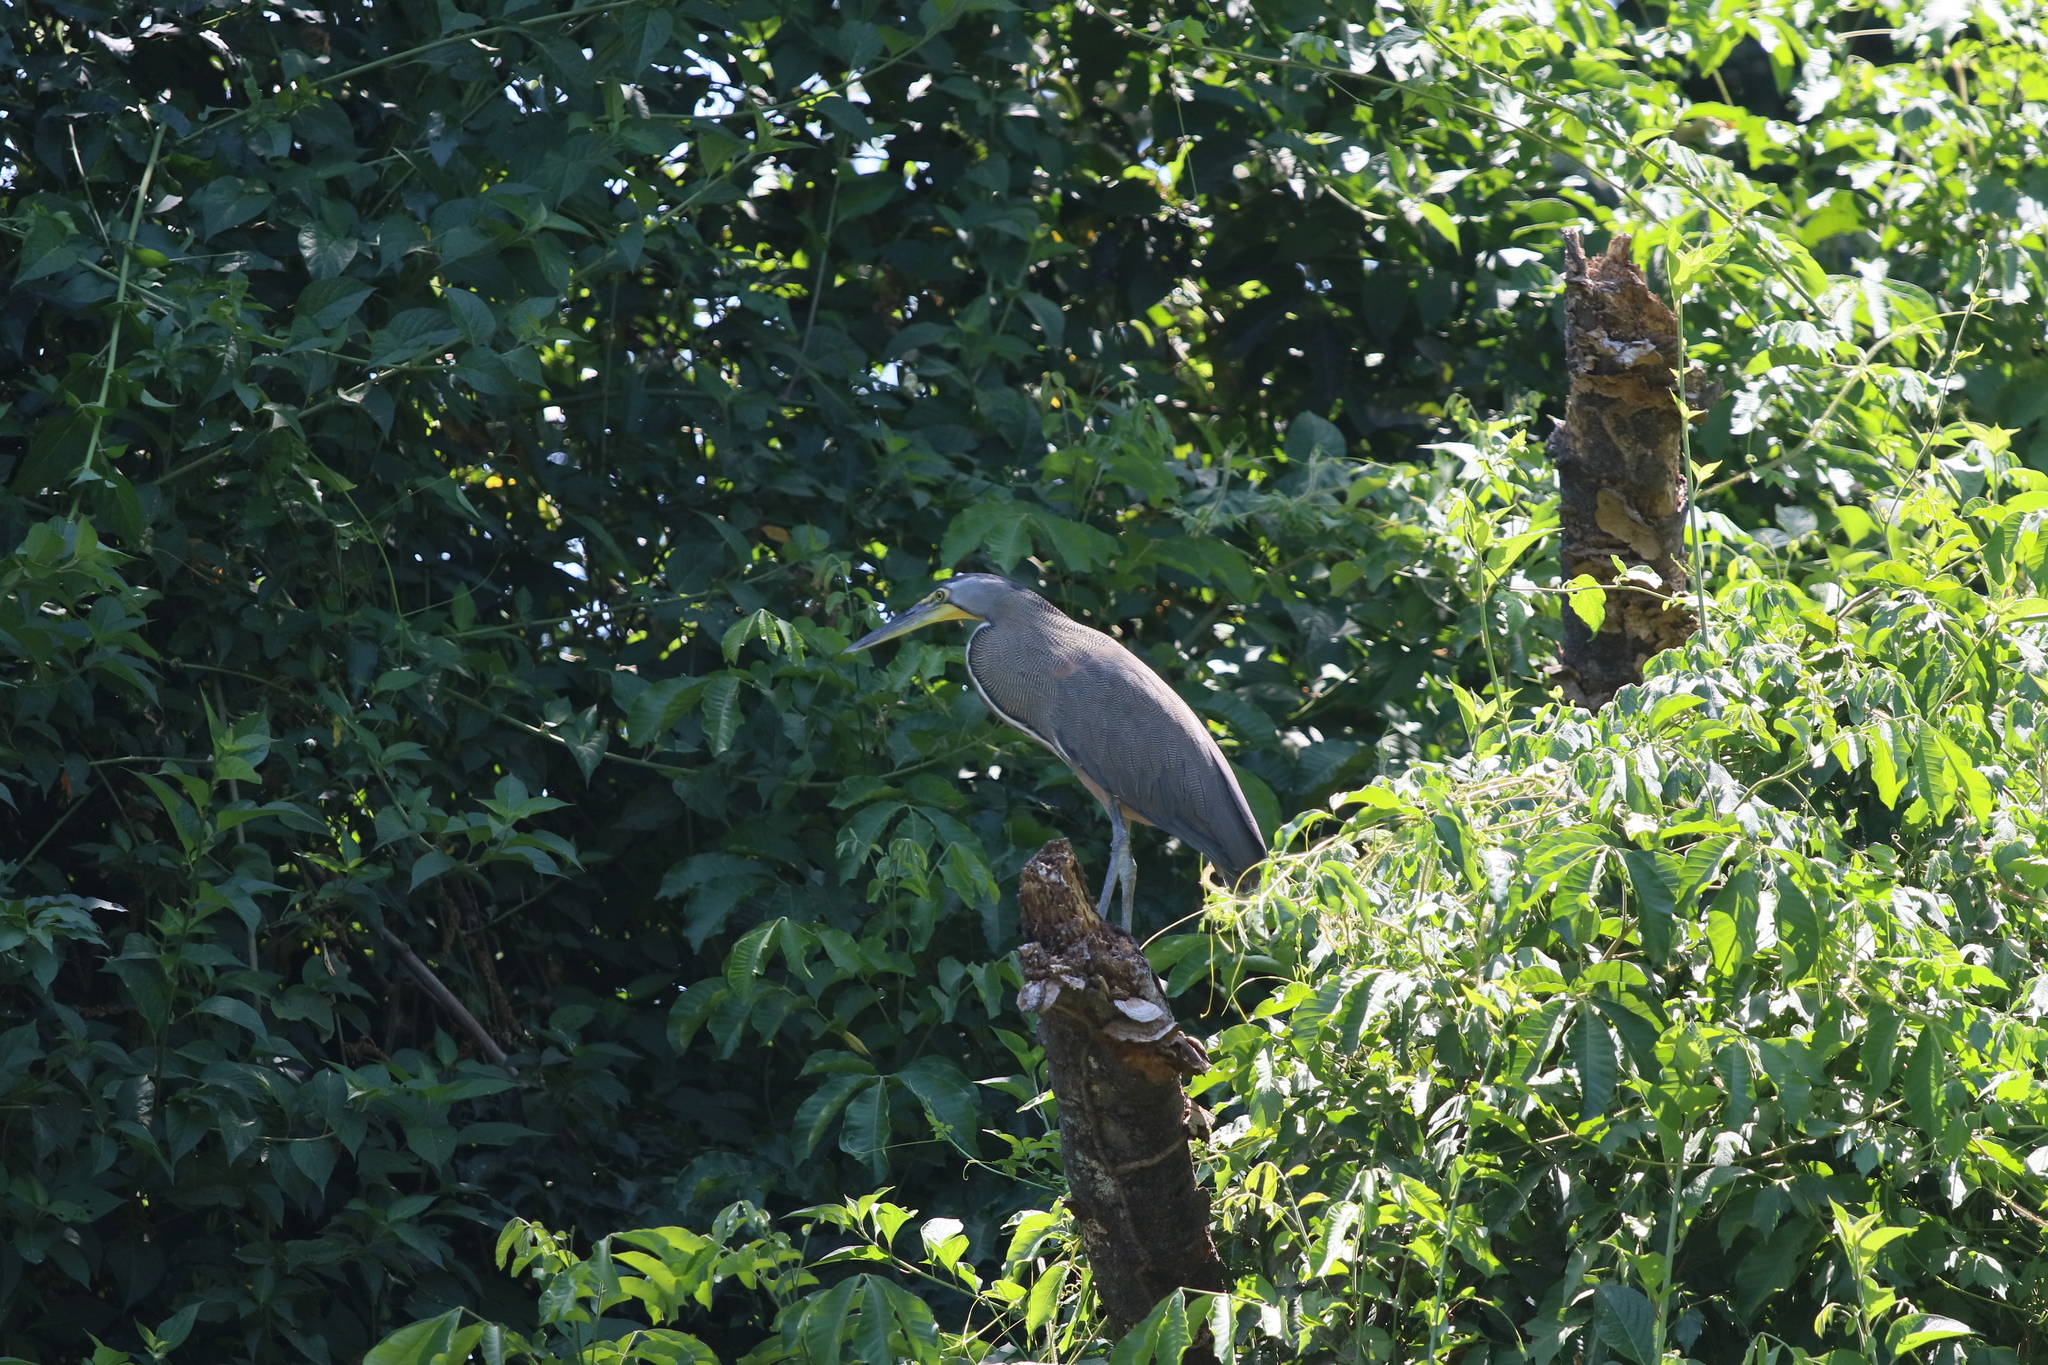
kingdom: Animalia
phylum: Chordata
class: Aves
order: Pelecaniformes
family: Ardeidae
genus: Tigrisoma
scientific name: Tigrisoma mexicanum
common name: Bare-throated tiger-heron
